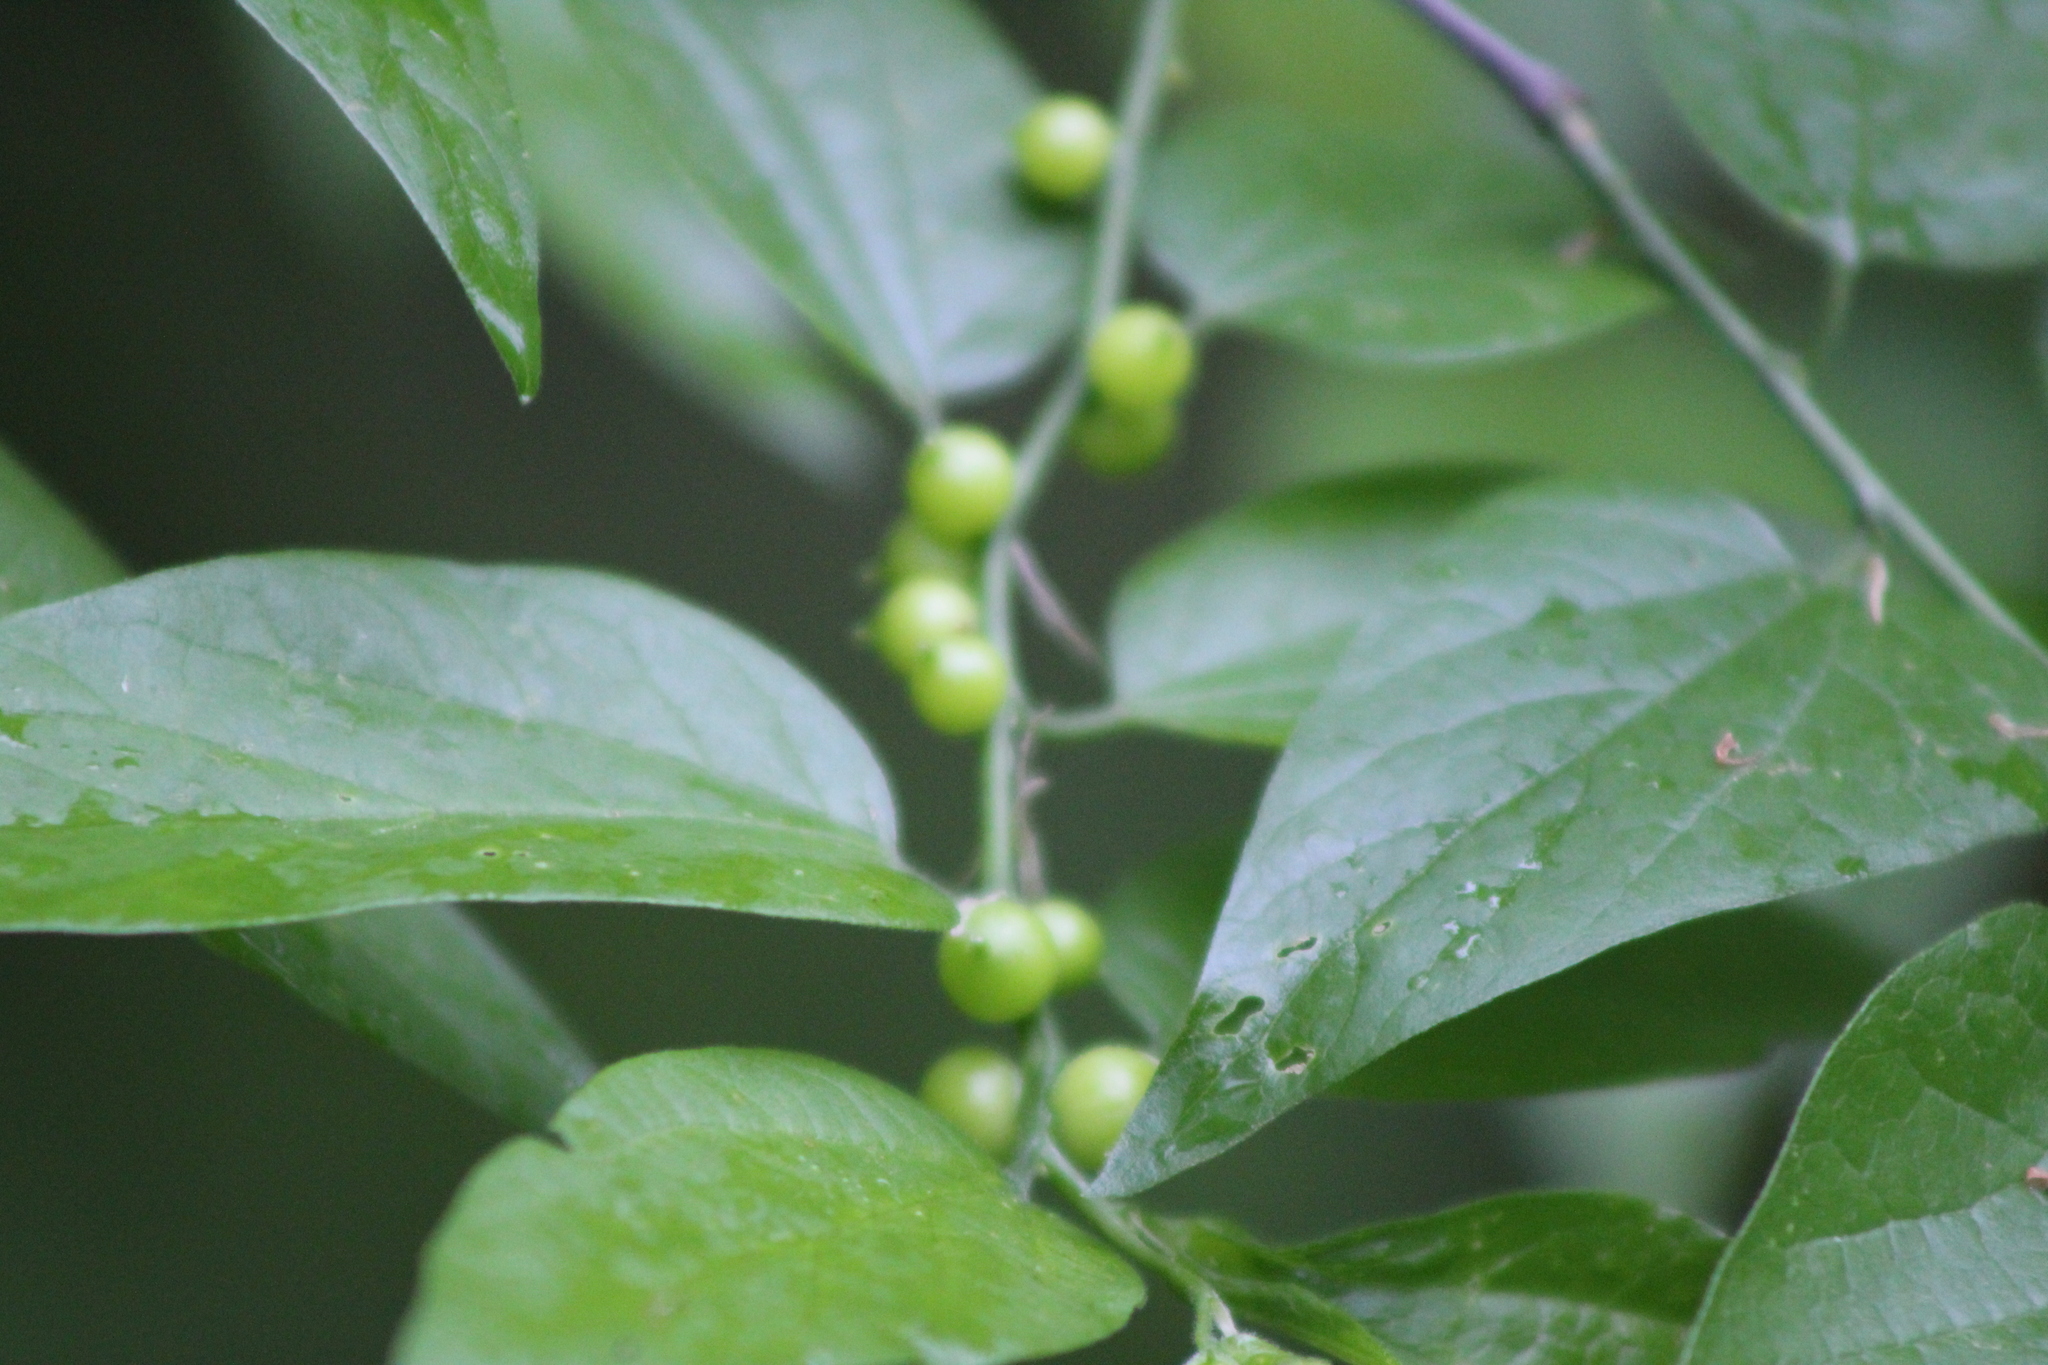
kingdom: Animalia
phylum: Arthropoda
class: Insecta
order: Diptera
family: Cecidomyiidae
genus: Celticecis
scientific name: Celticecis connata
